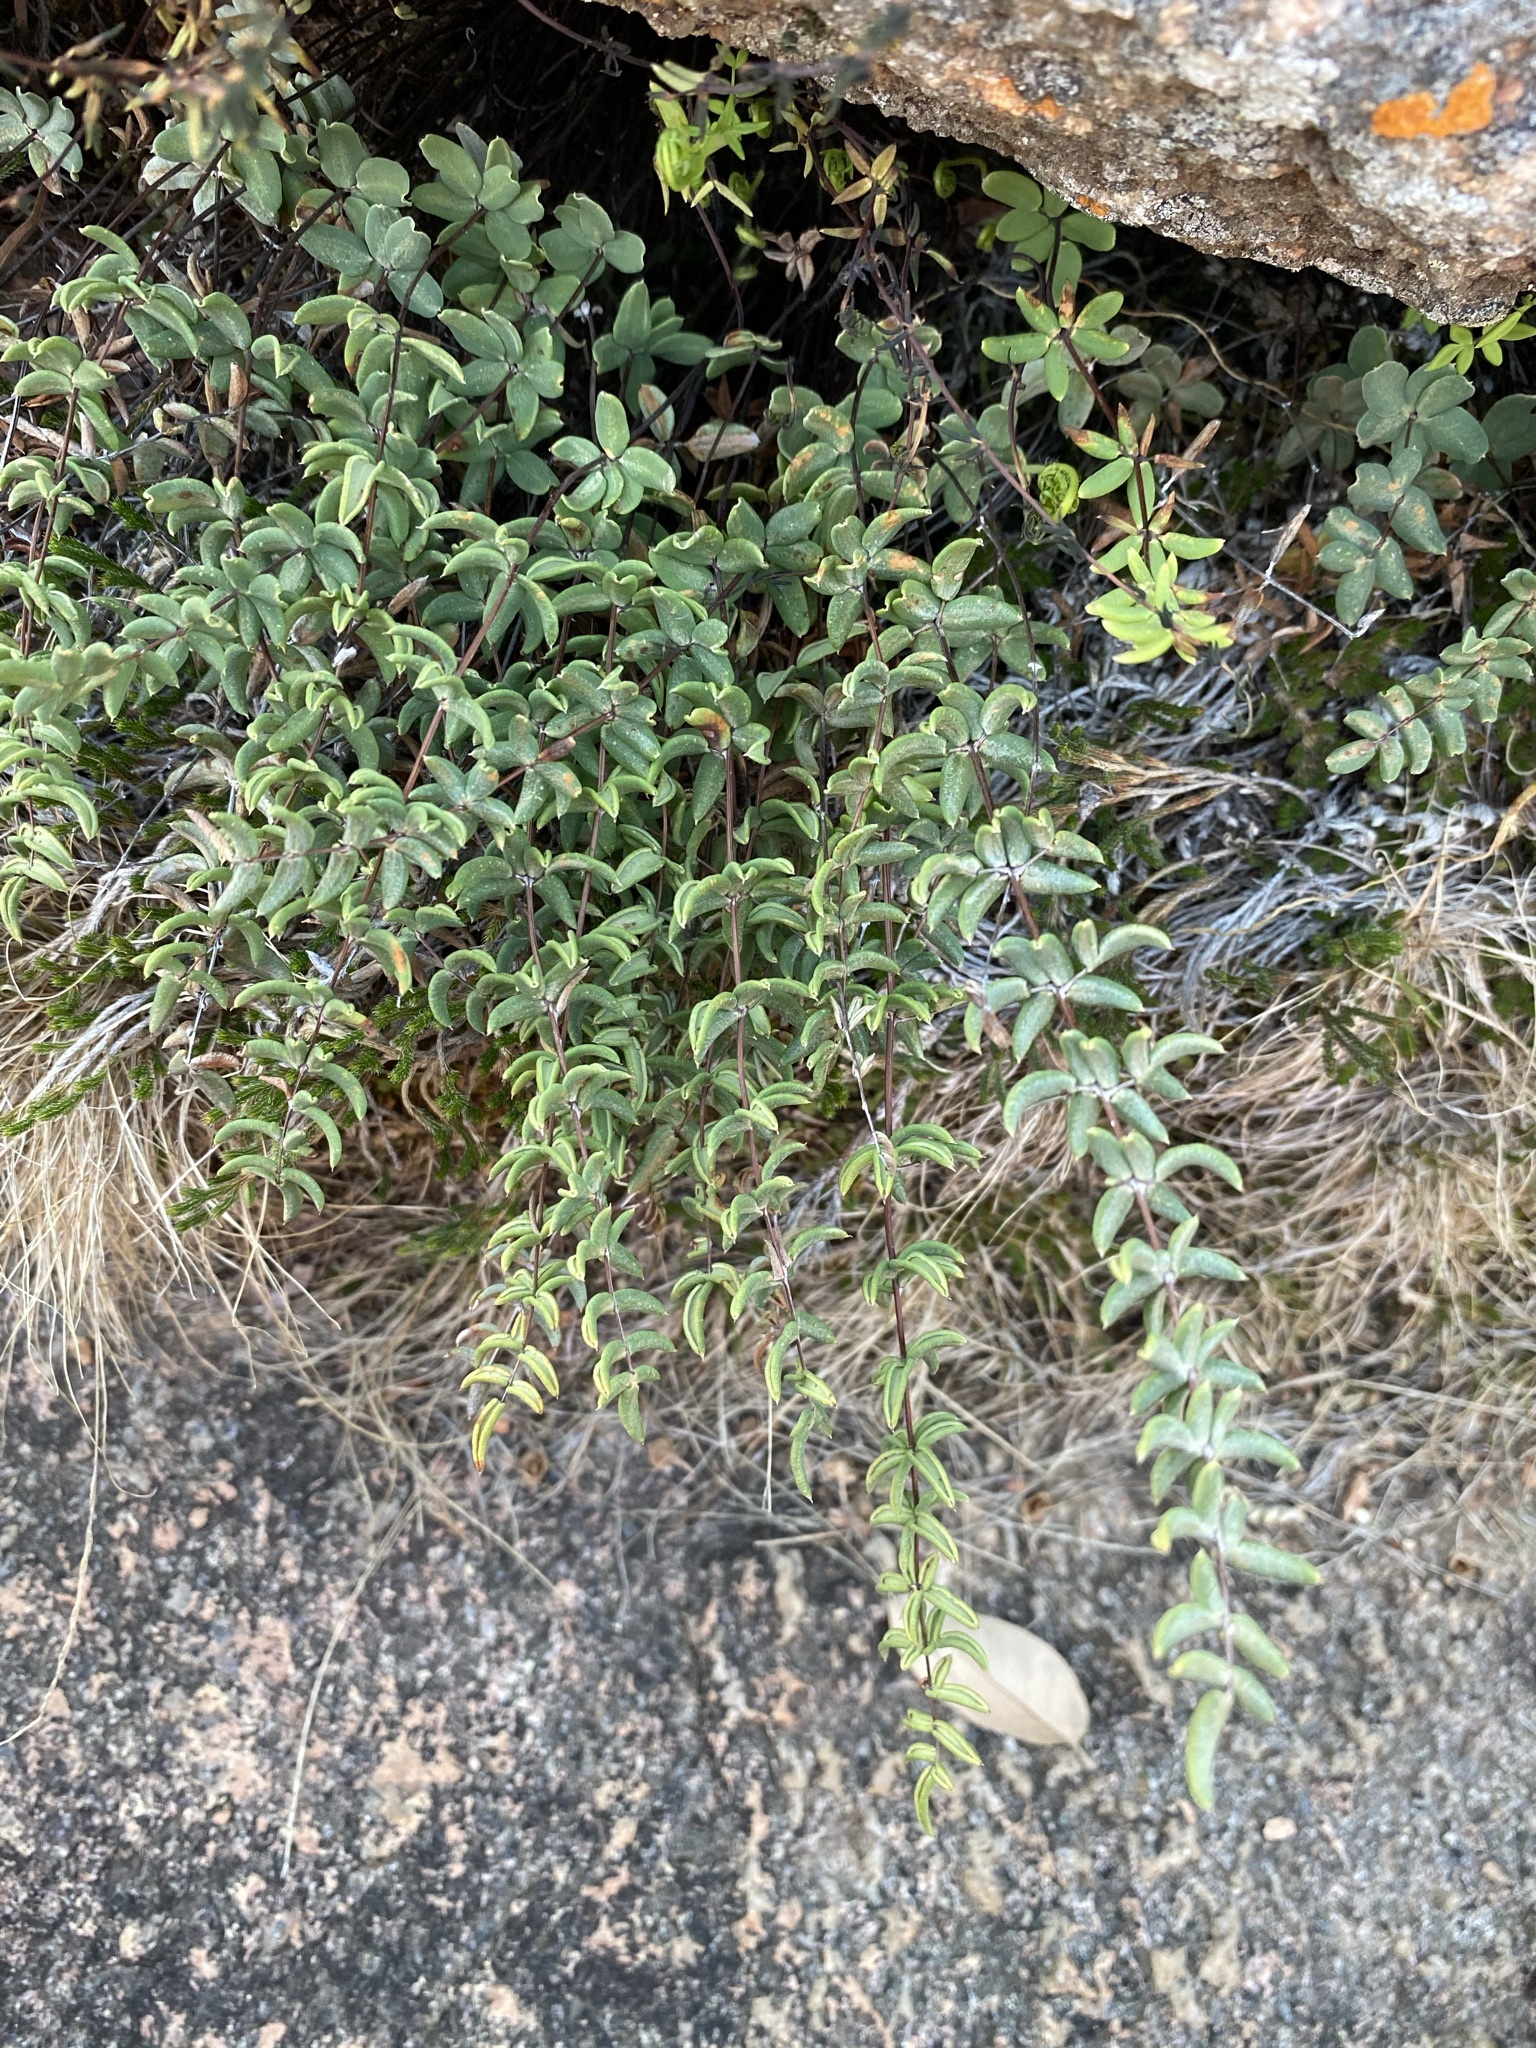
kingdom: Plantae
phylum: Tracheophyta
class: Polypodiopsida
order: Polypodiales
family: Pteridaceae
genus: Pellaea
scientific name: Pellaea wrightiana
